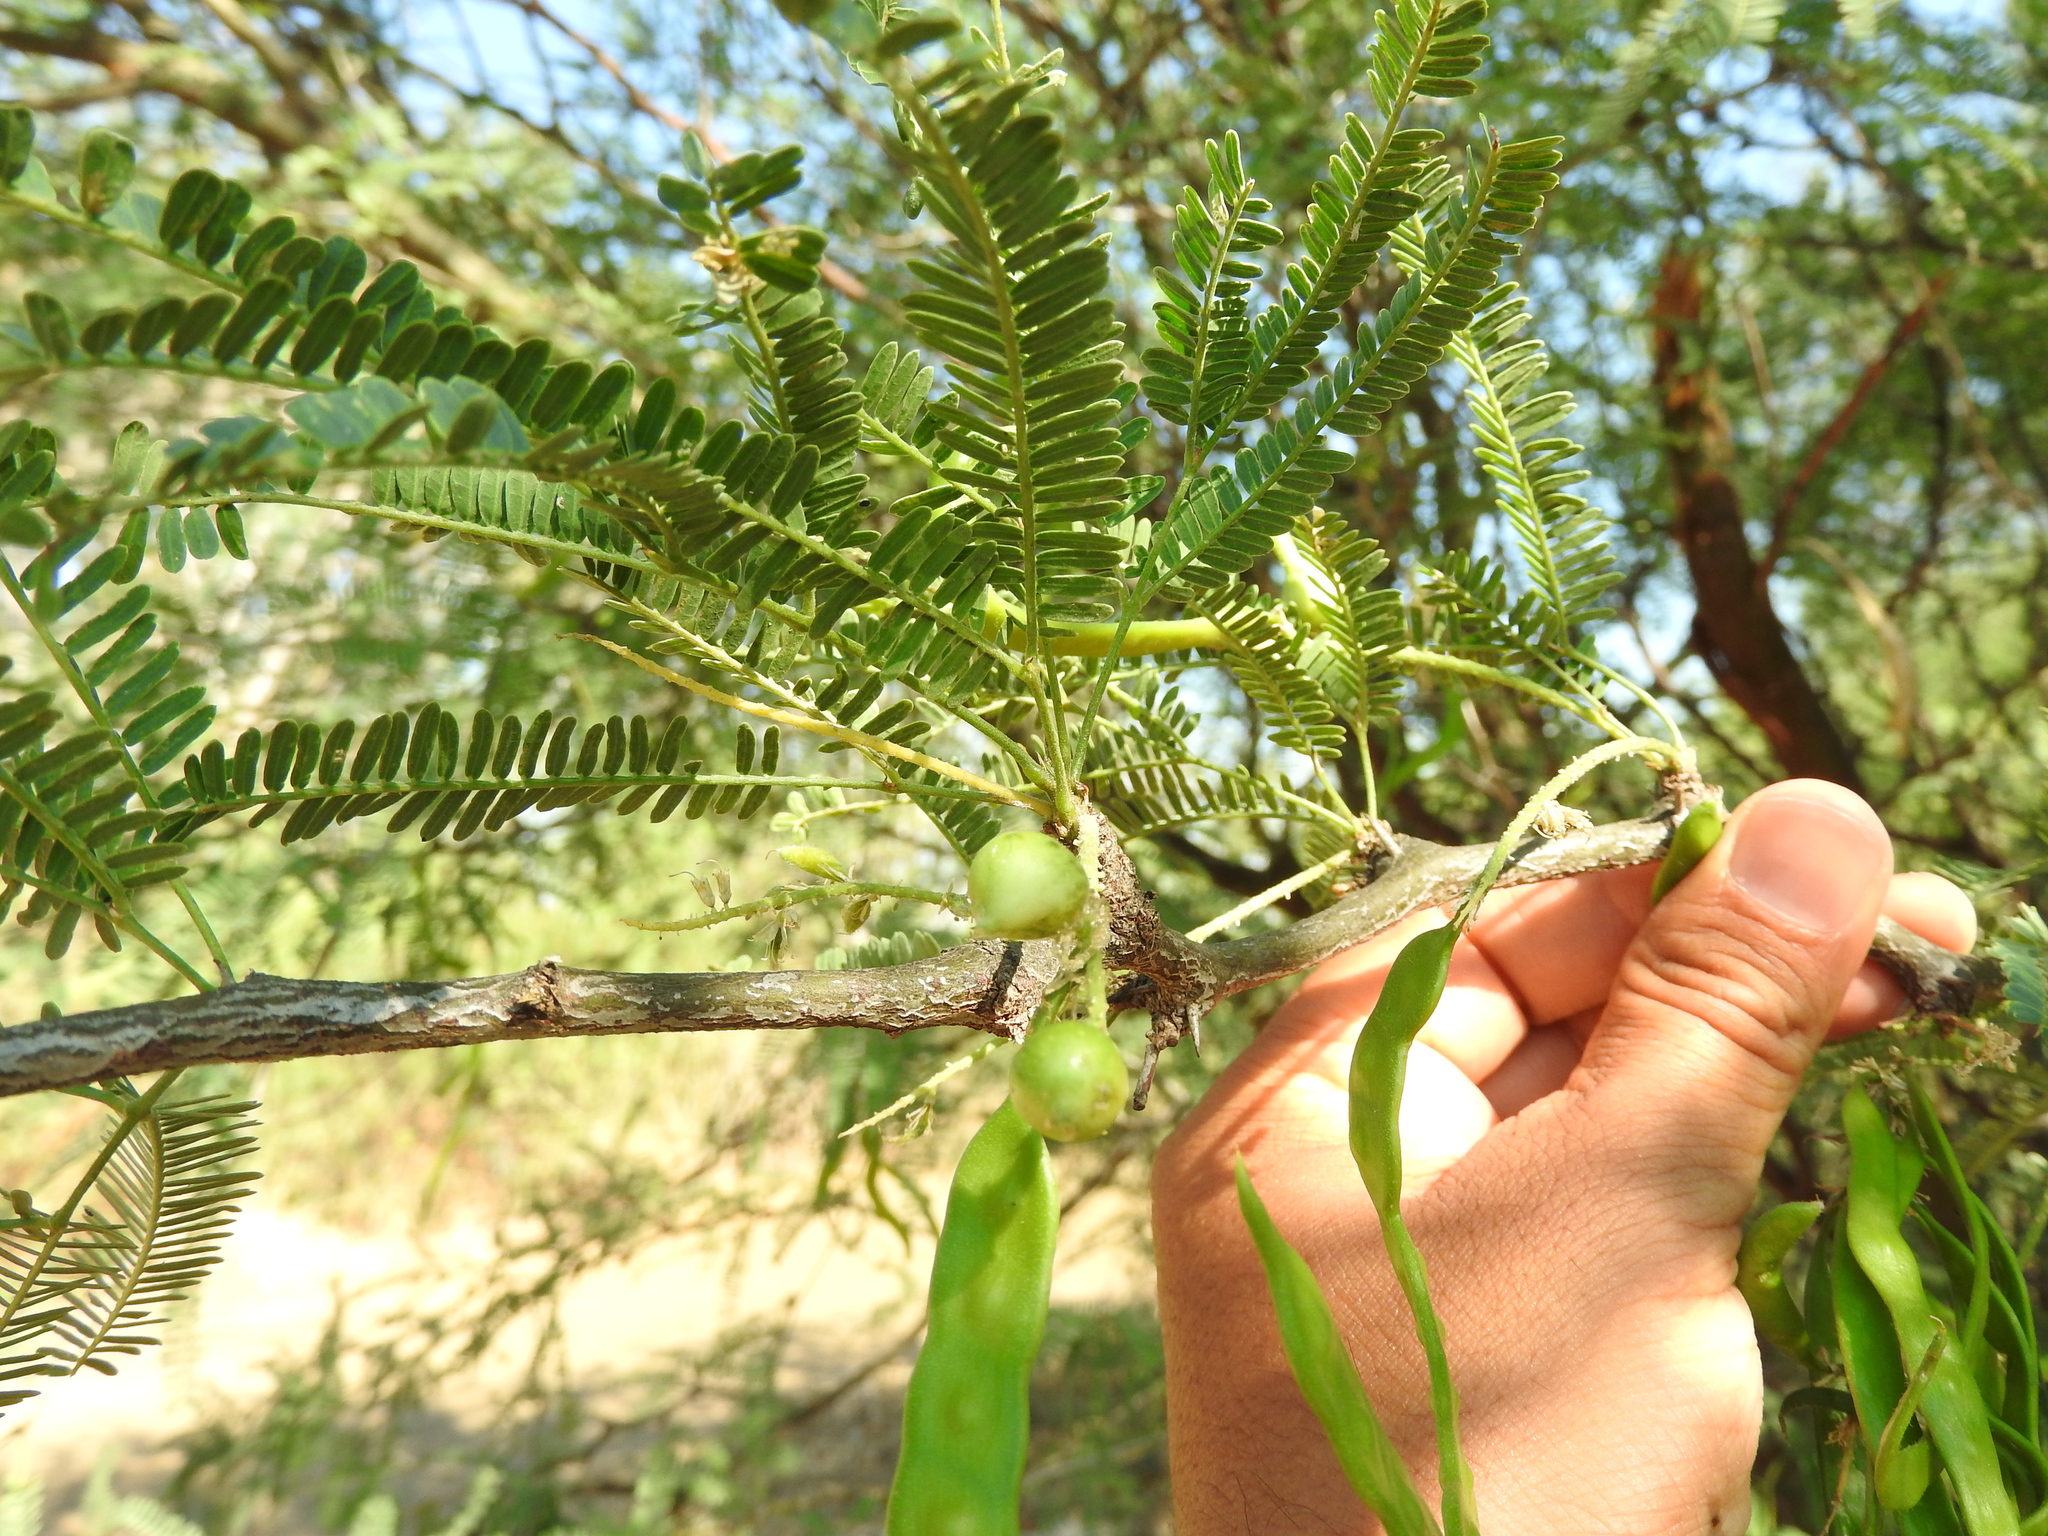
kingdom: Plantae
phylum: Tracheophyta
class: Magnoliopsida
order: Fabales
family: Fabaceae
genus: Prosopis
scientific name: Prosopis laevigata
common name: Smooth mesquite
